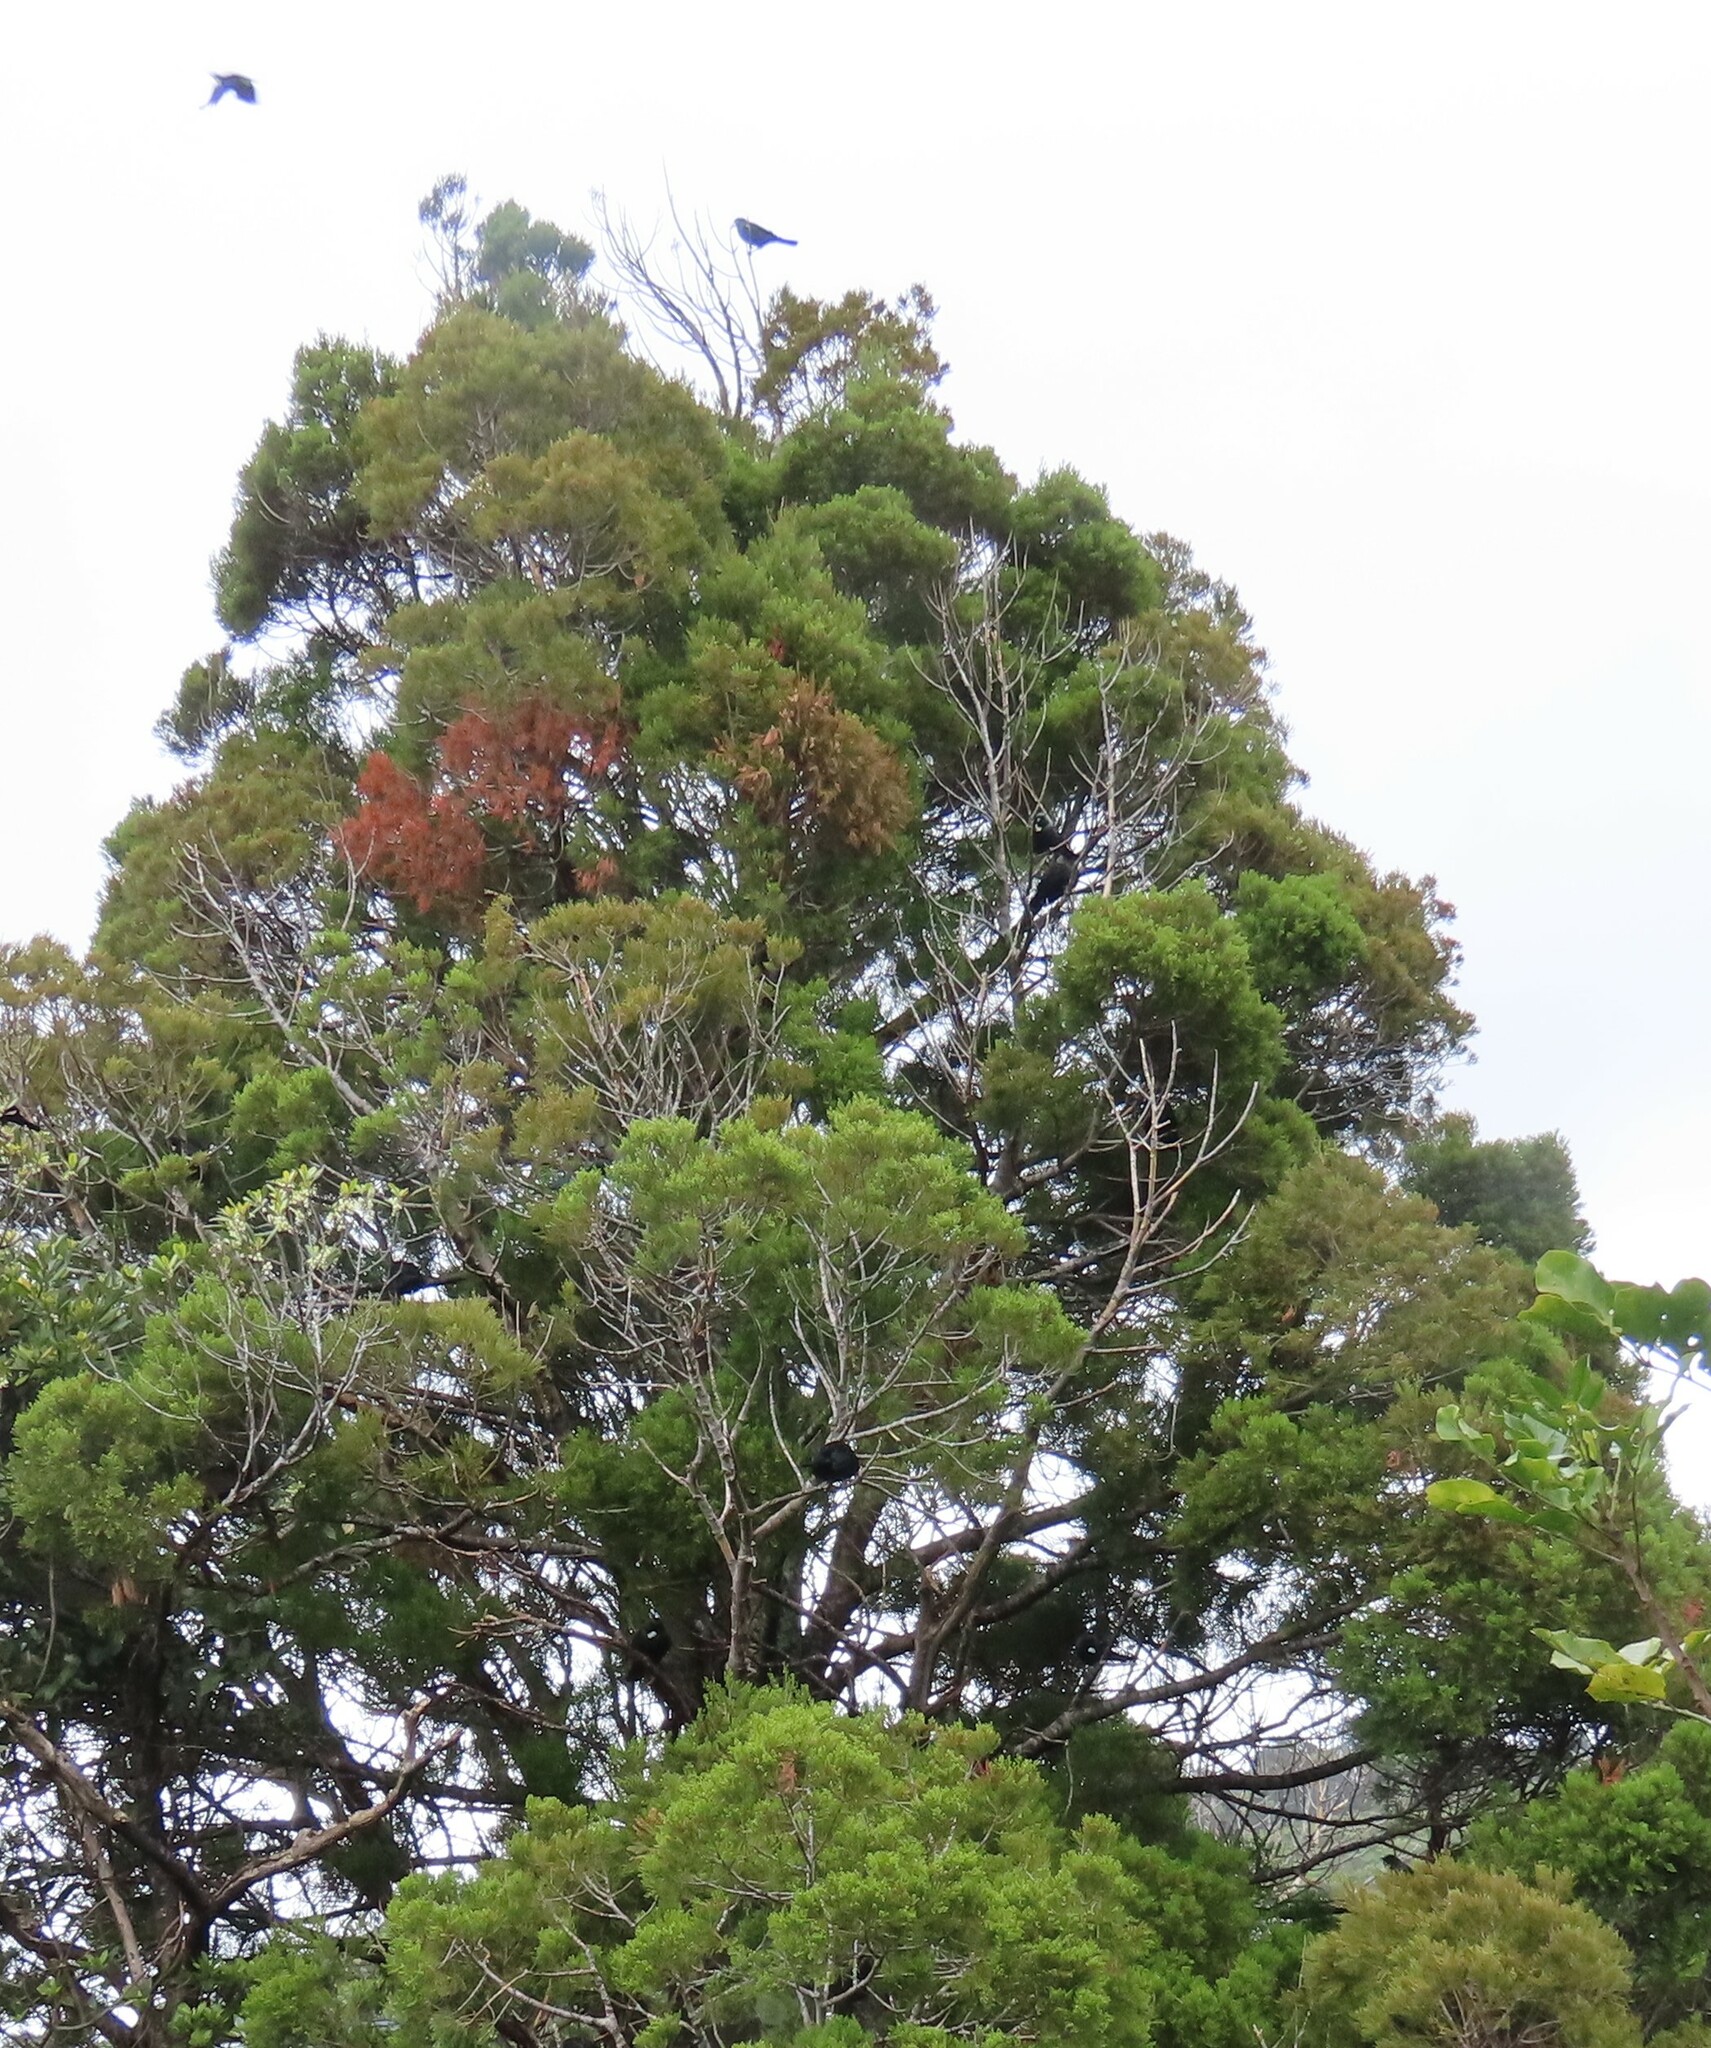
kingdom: Plantae
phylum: Tracheophyta
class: Pinopsida
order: Pinales
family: Podocarpaceae
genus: Dacrycarpus
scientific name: Dacrycarpus dacrydioides
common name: White pine
